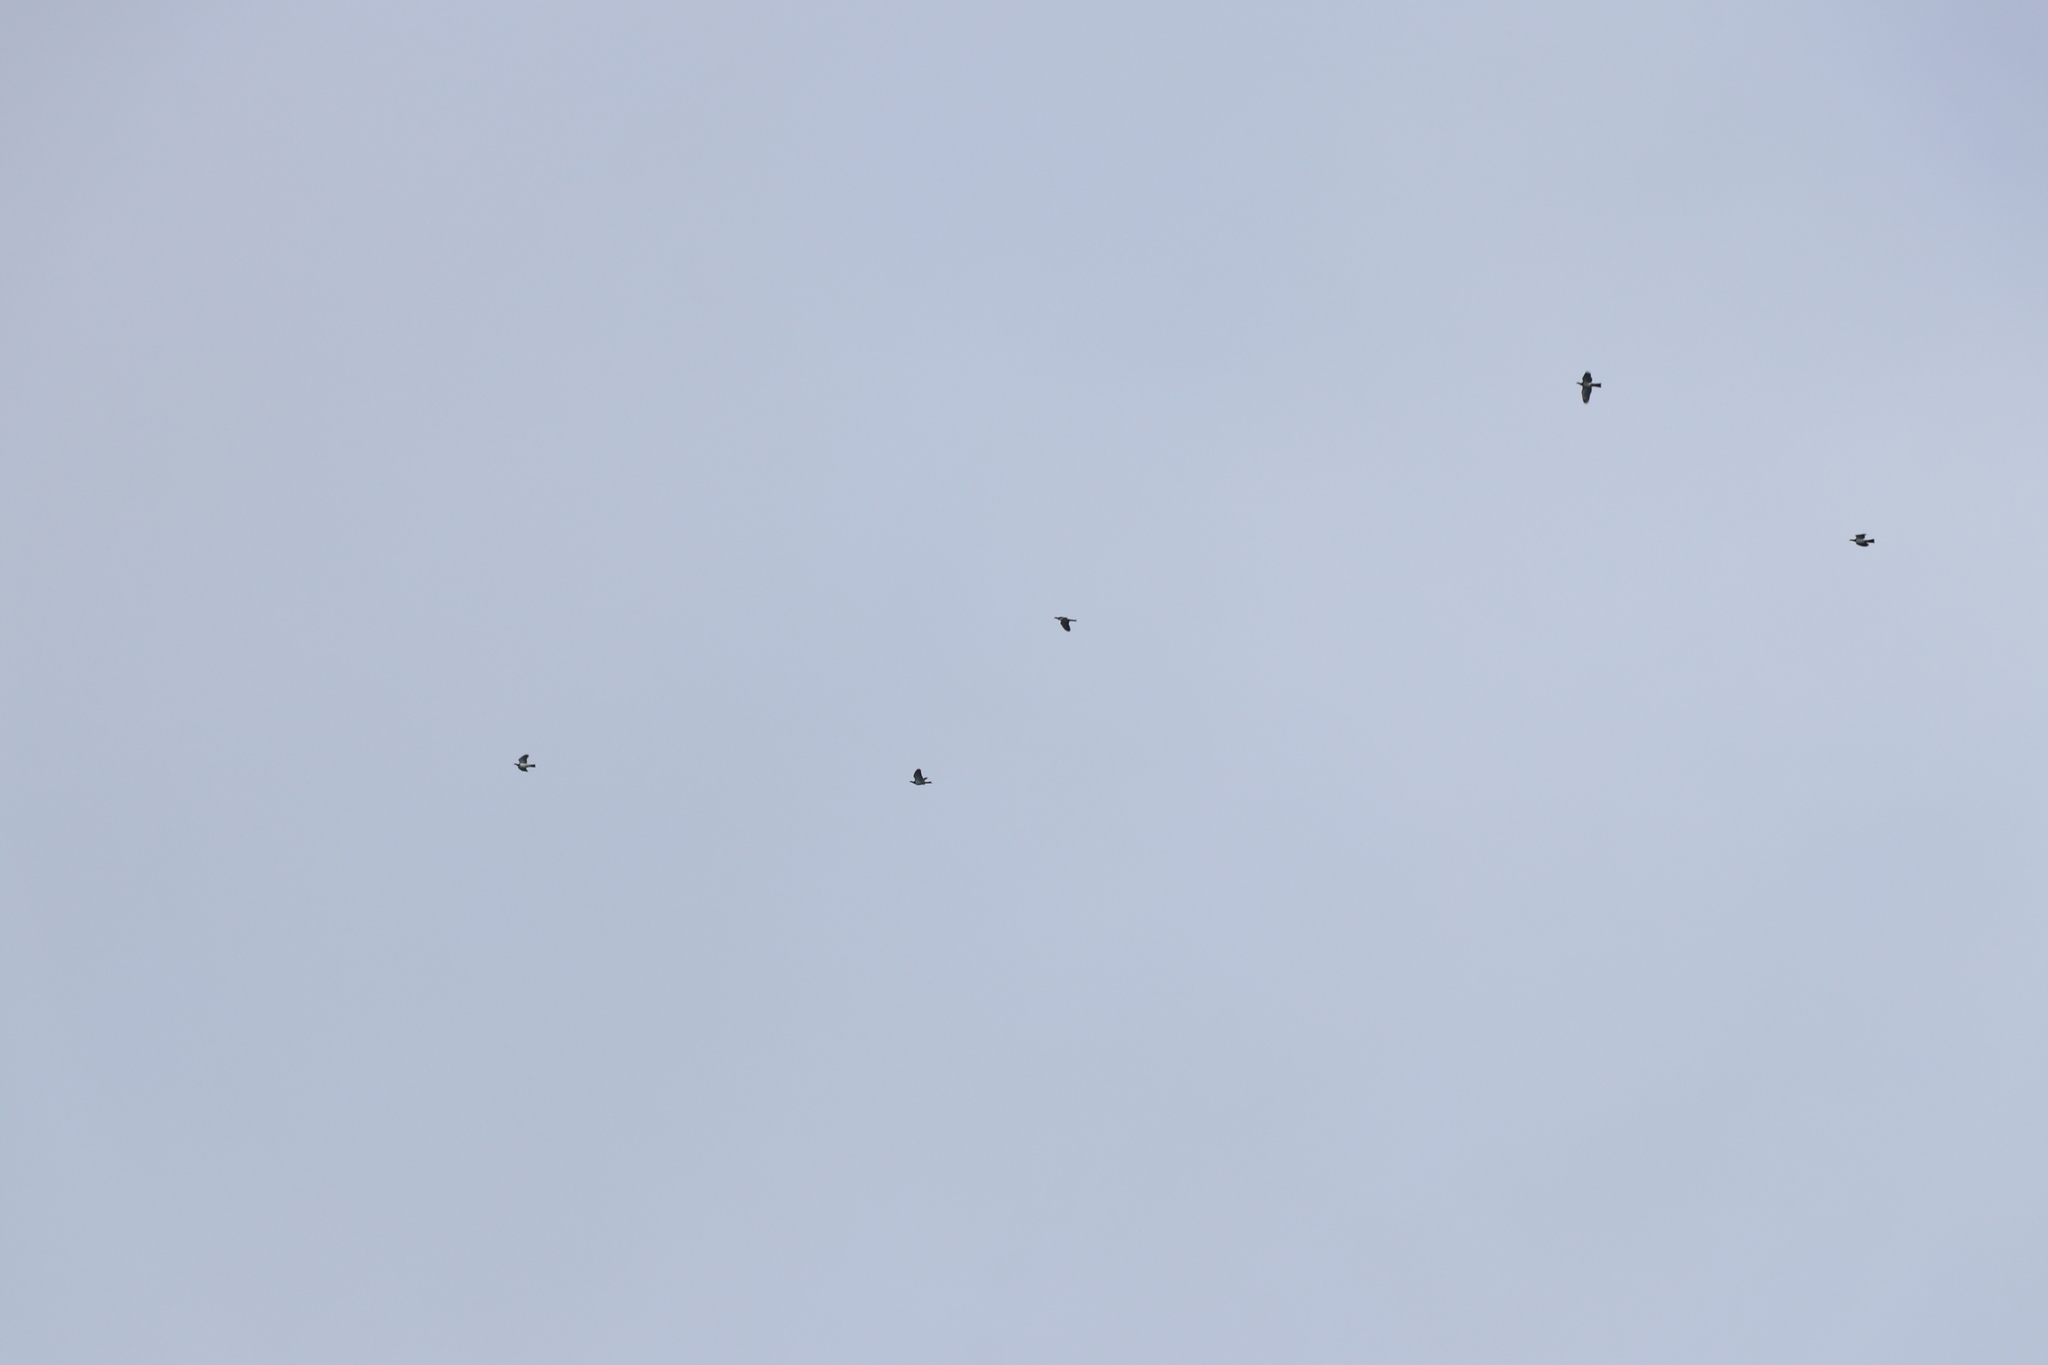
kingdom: Animalia
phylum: Chordata
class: Aves
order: Columbiformes
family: Columbidae
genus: Hemiphaga
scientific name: Hemiphaga novaeseelandiae
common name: New zealand pigeon
